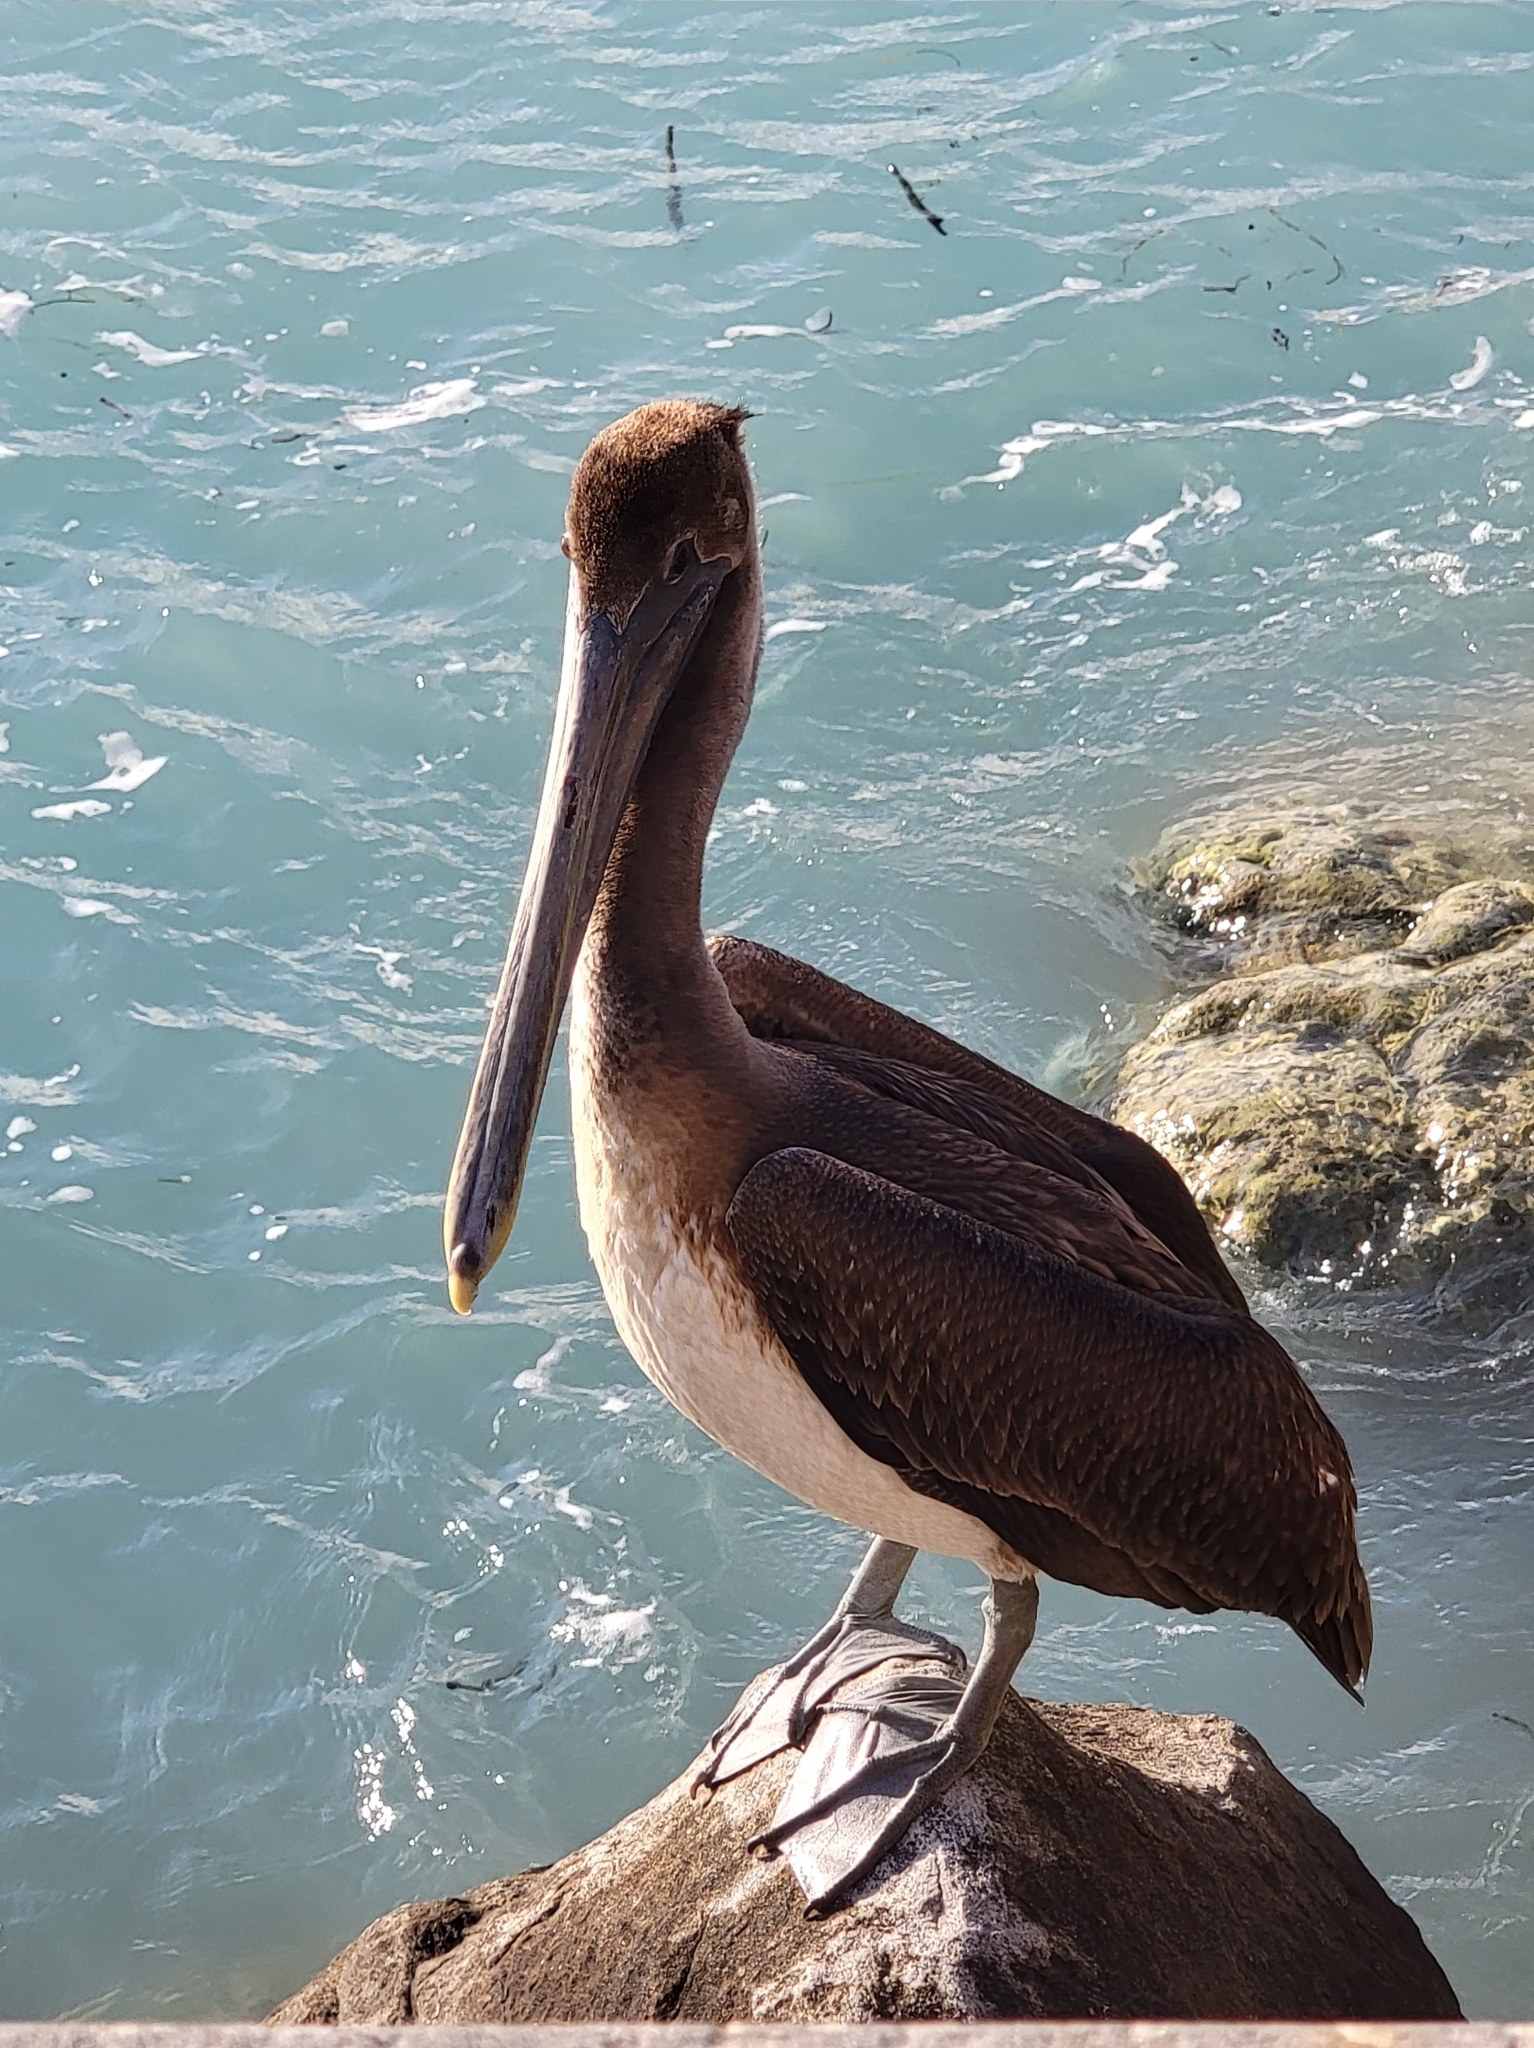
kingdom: Animalia
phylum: Chordata
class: Aves
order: Pelecaniformes
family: Pelecanidae
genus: Pelecanus
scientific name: Pelecanus occidentalis
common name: Brown pelican
